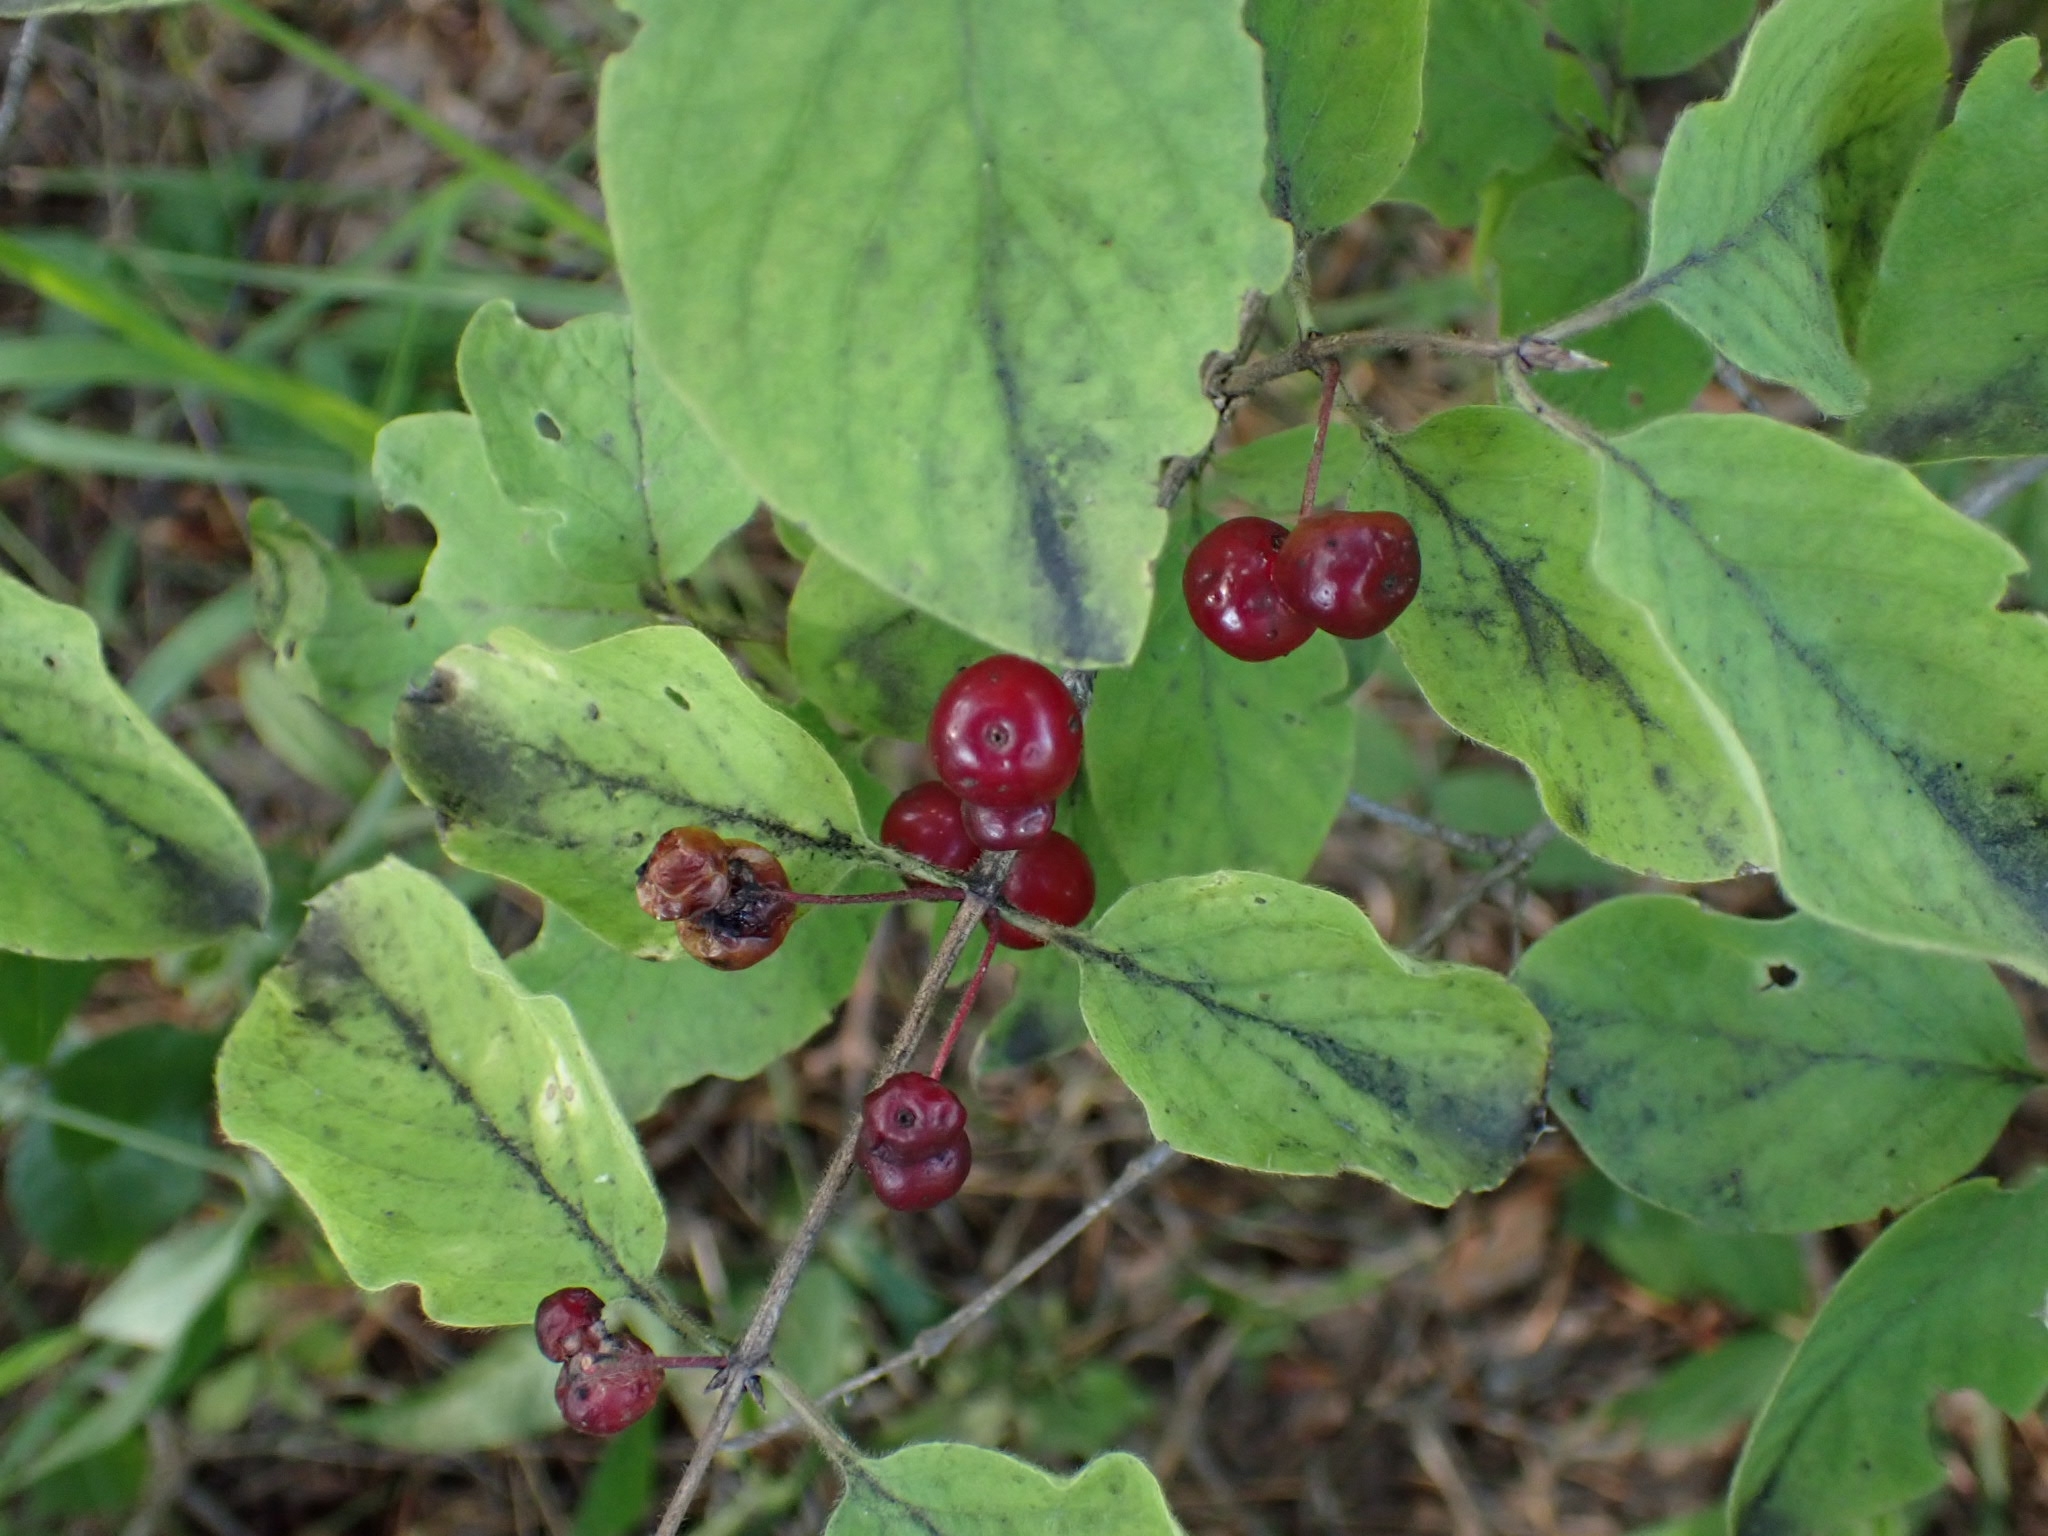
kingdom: Plantae
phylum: Tracheophyta
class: Magnoliopsida
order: Dipsacales
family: Caprifoliaceae
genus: Lonicera
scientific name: Lonicera xylosteum
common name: Fly honeysuckle
